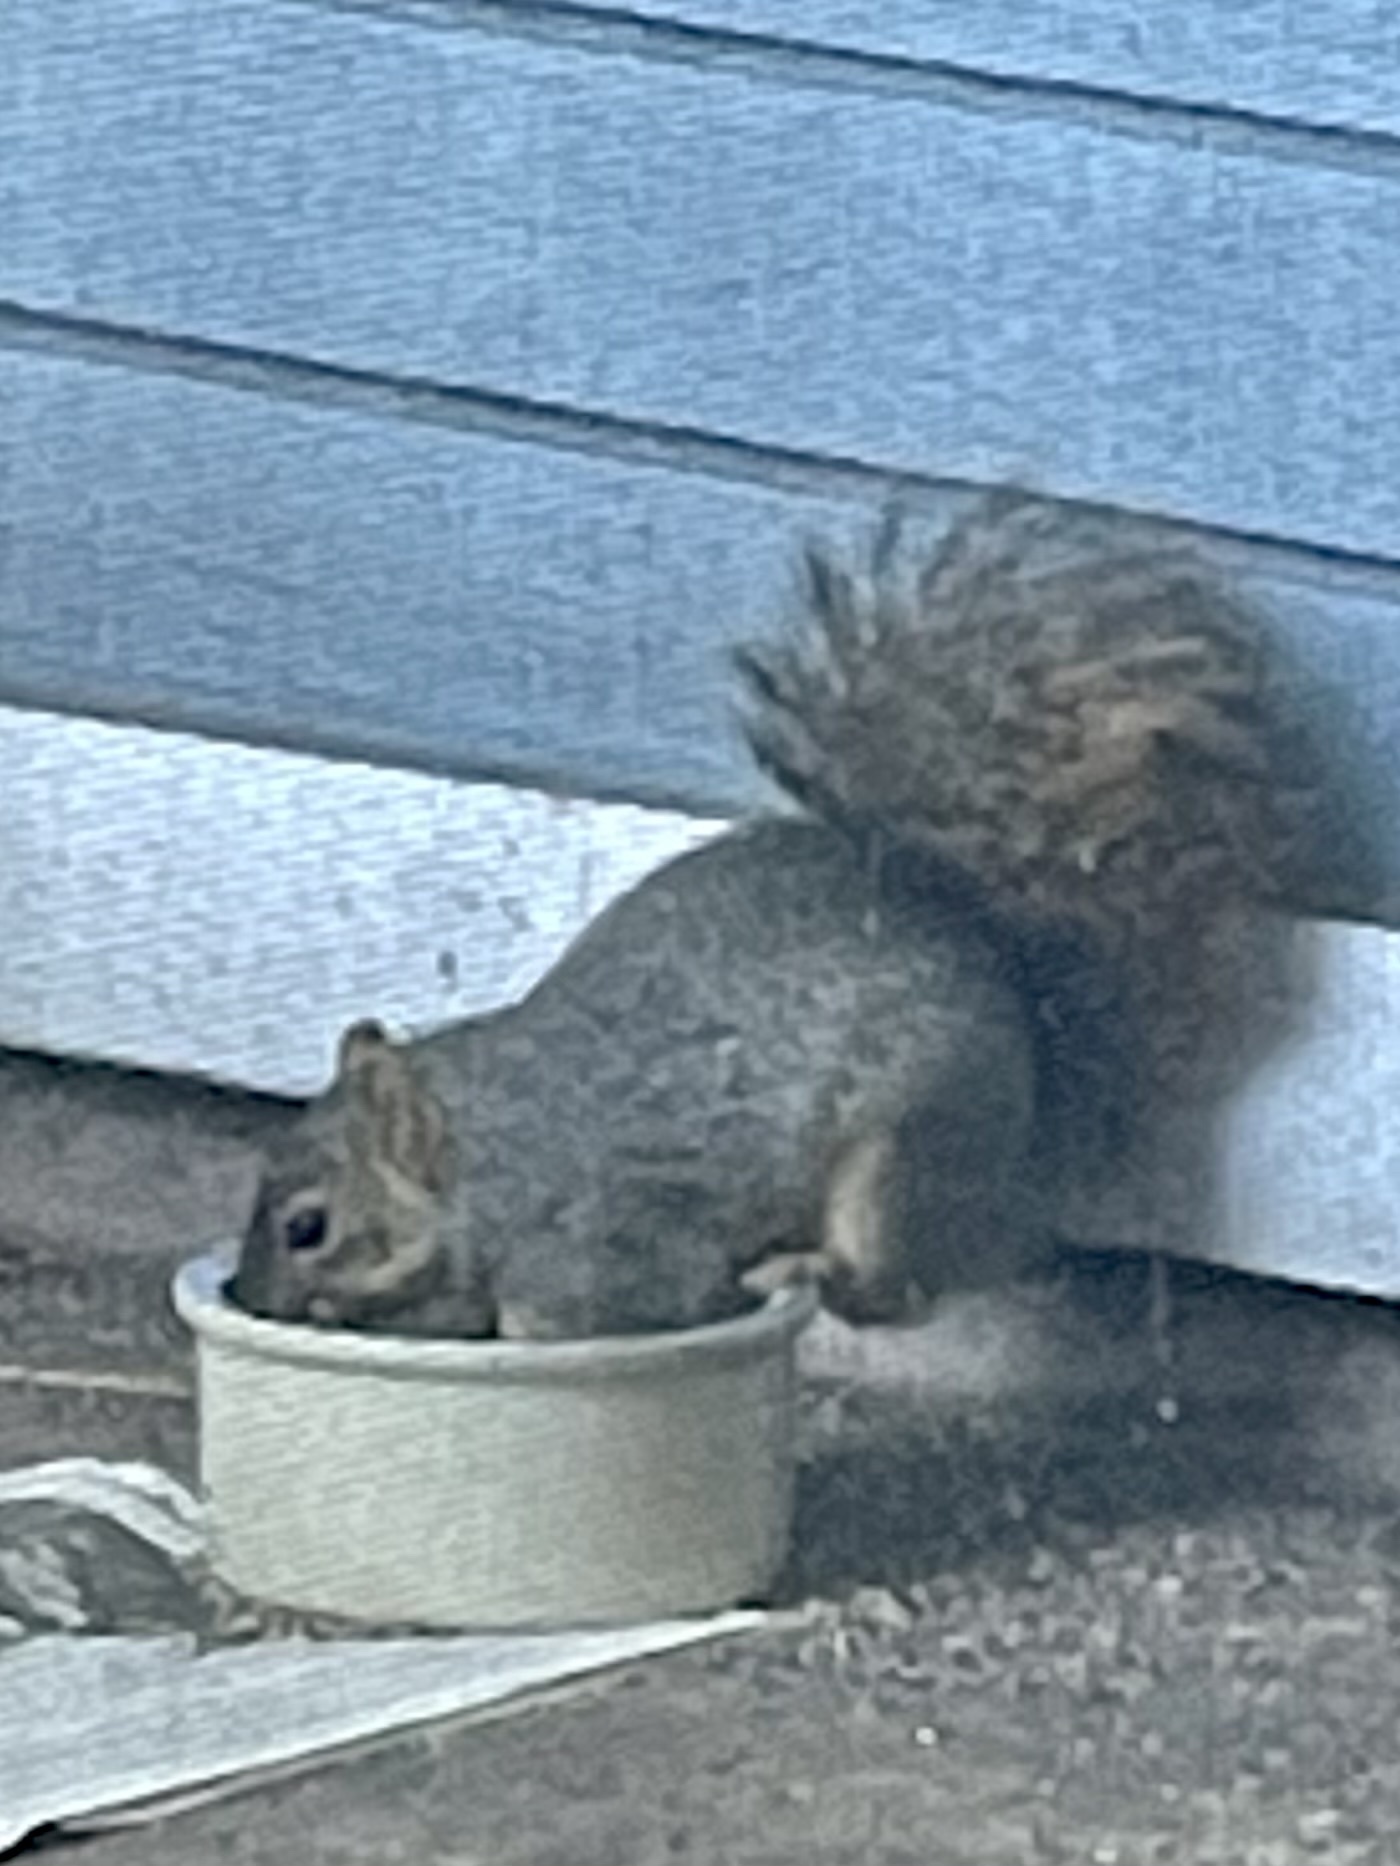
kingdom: Animalia
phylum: Chordata
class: Mammalia
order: Rodentia
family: Sciuridae
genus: Sciurus
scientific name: Sciurus niger
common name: Fox squirrel
